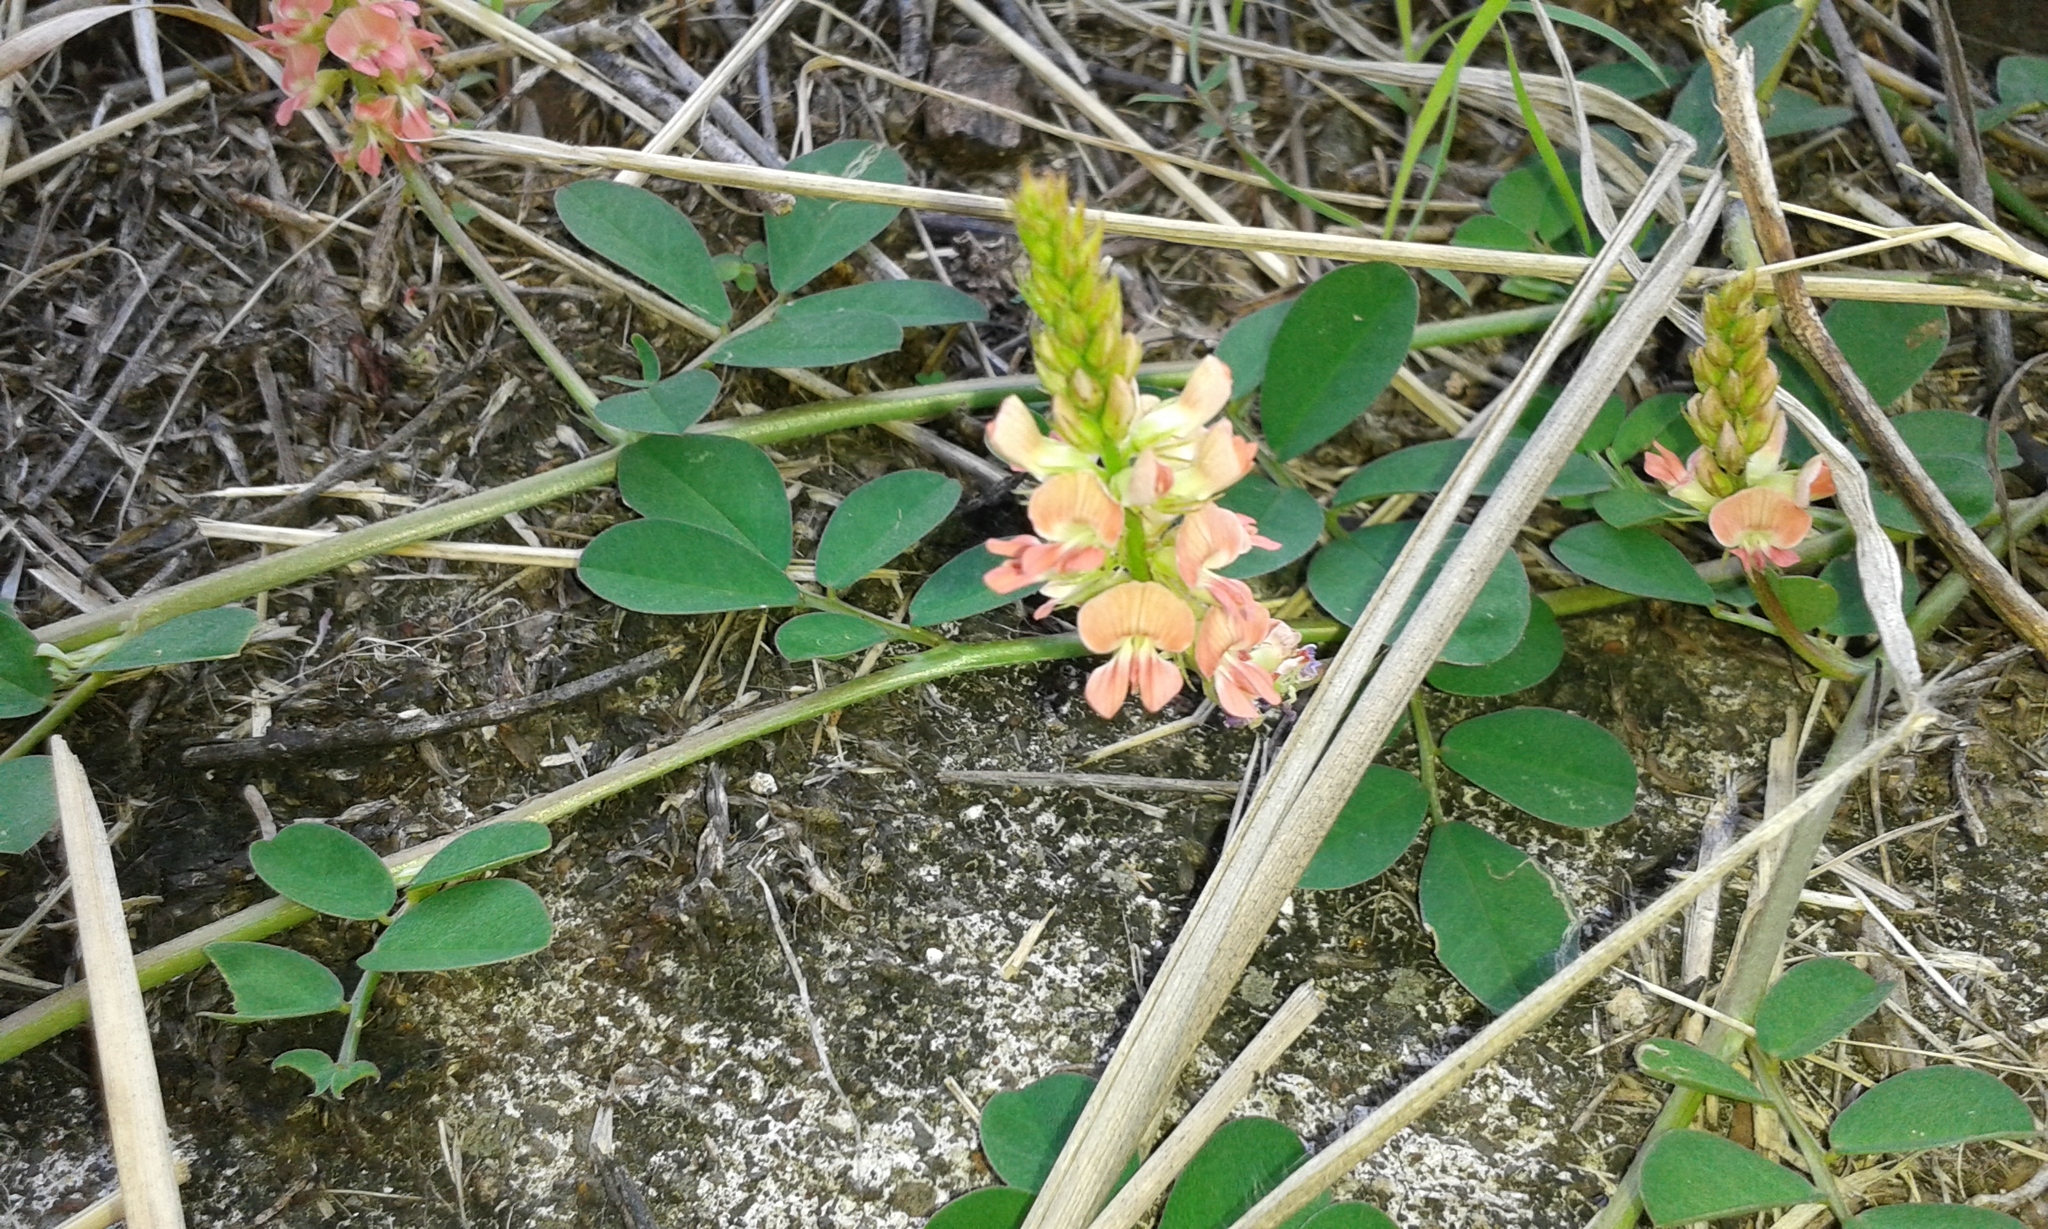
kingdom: Plantae
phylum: Tracheophyta
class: Magnoliopsida
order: Fabales
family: Fabaceae
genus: Indigofera
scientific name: Indigofera spicata
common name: Creeping indigo
